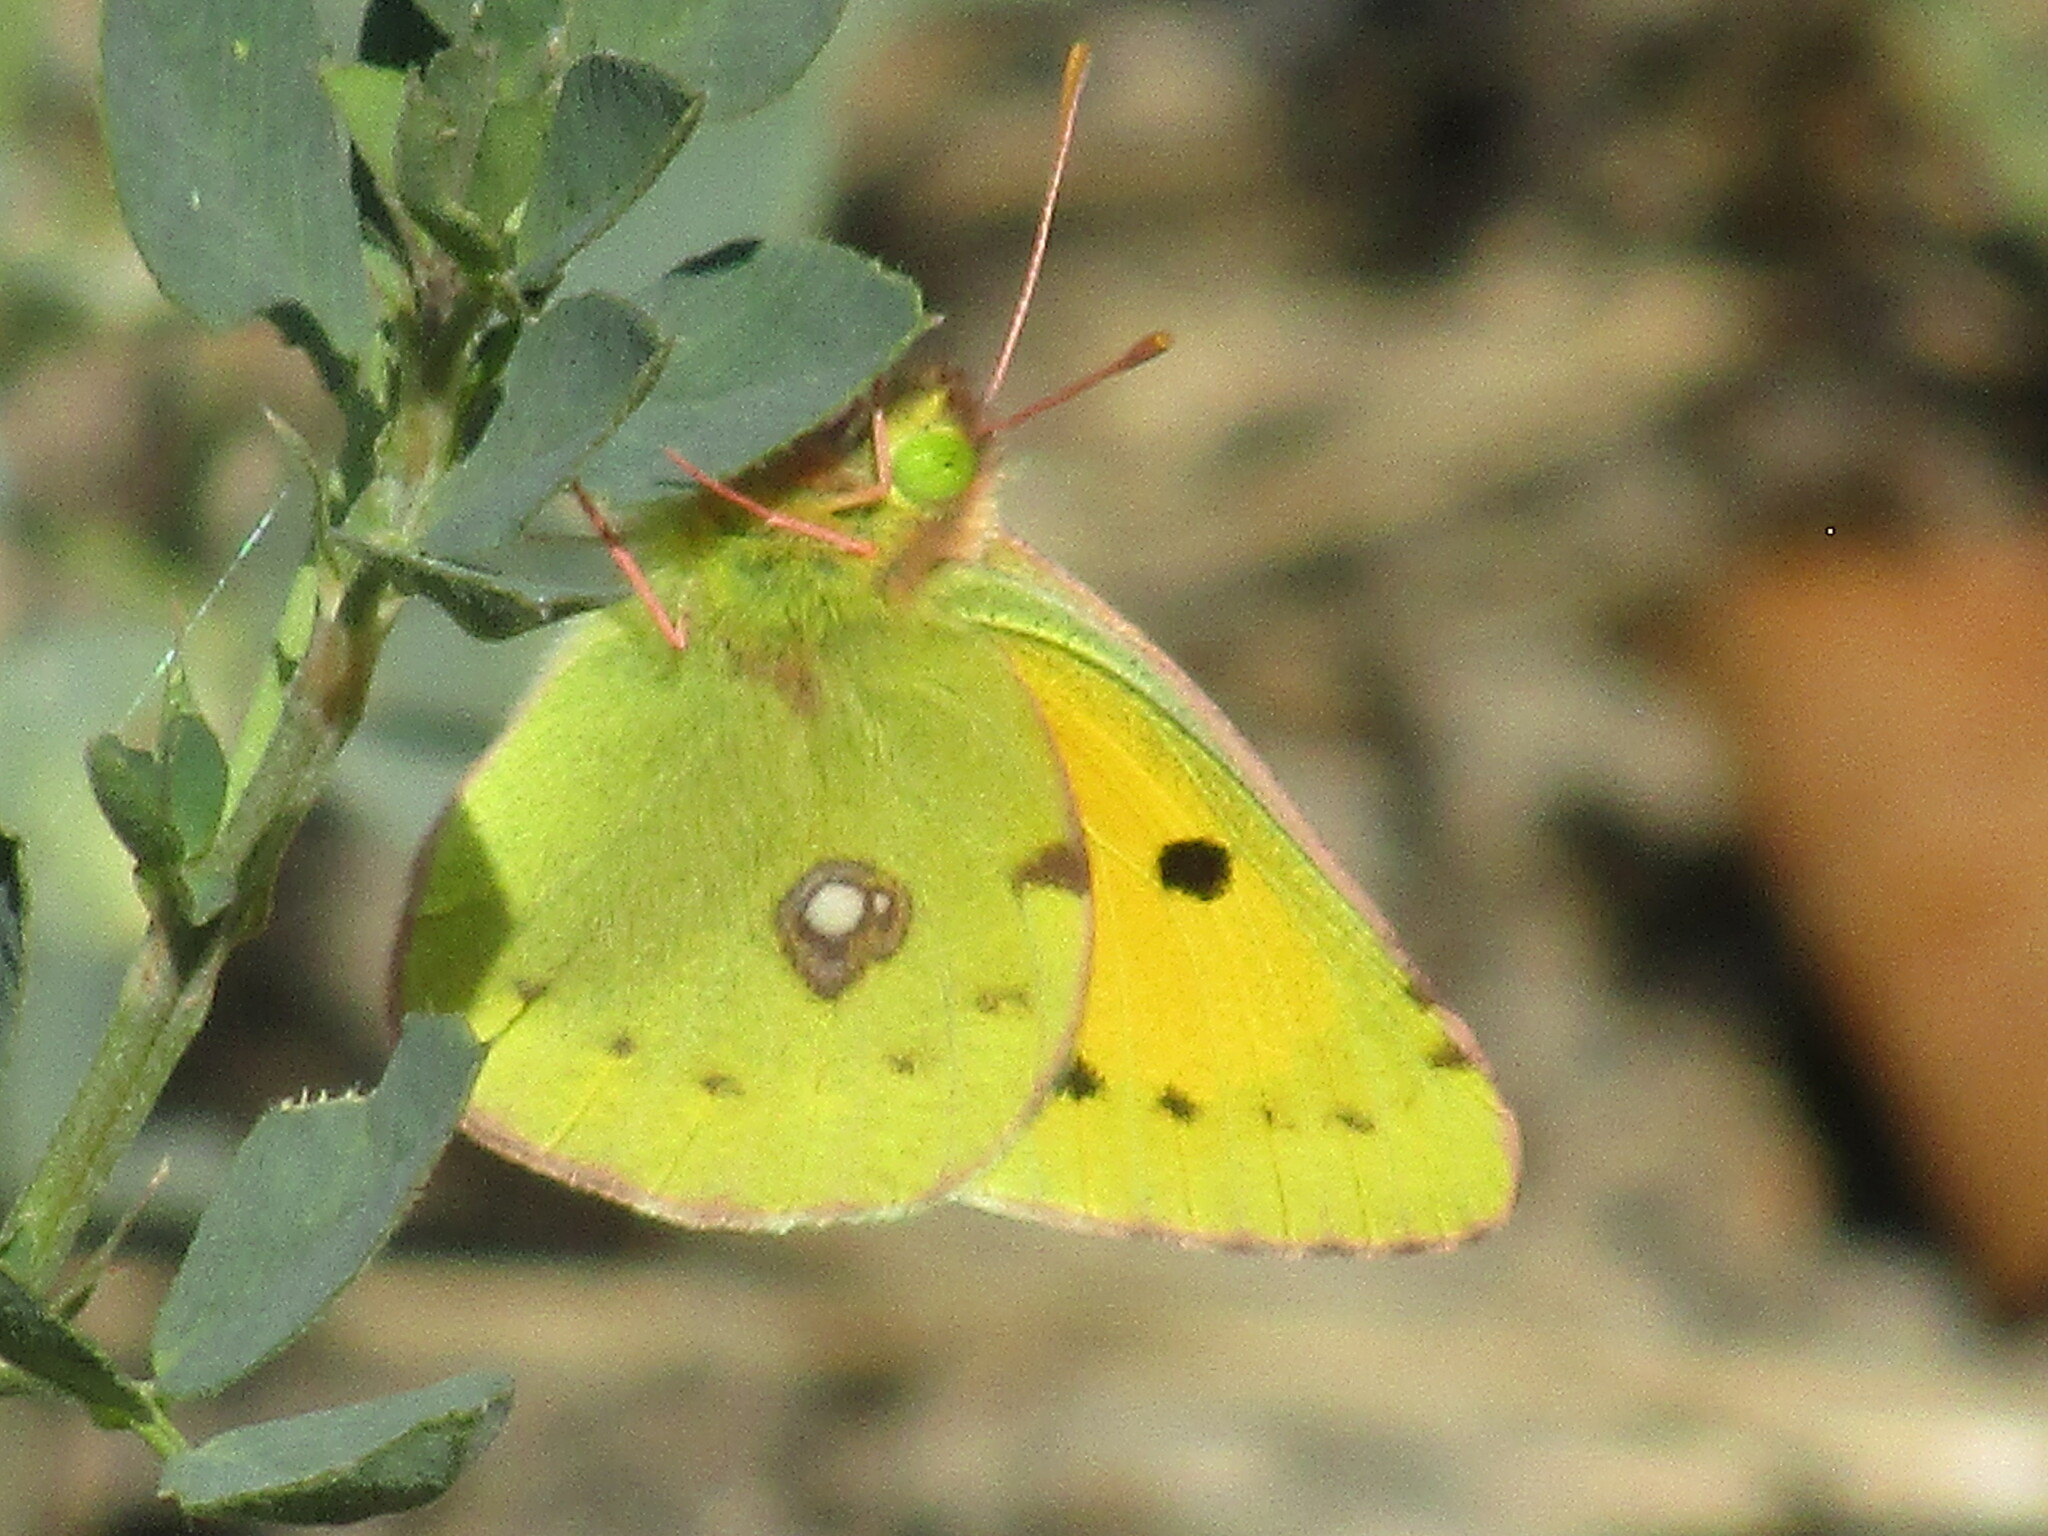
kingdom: Animalia
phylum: Arthropoda
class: Insecta
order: Lepidoptera
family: Pieridae
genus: Colias
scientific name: Colias croceus
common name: Clouded yellow
